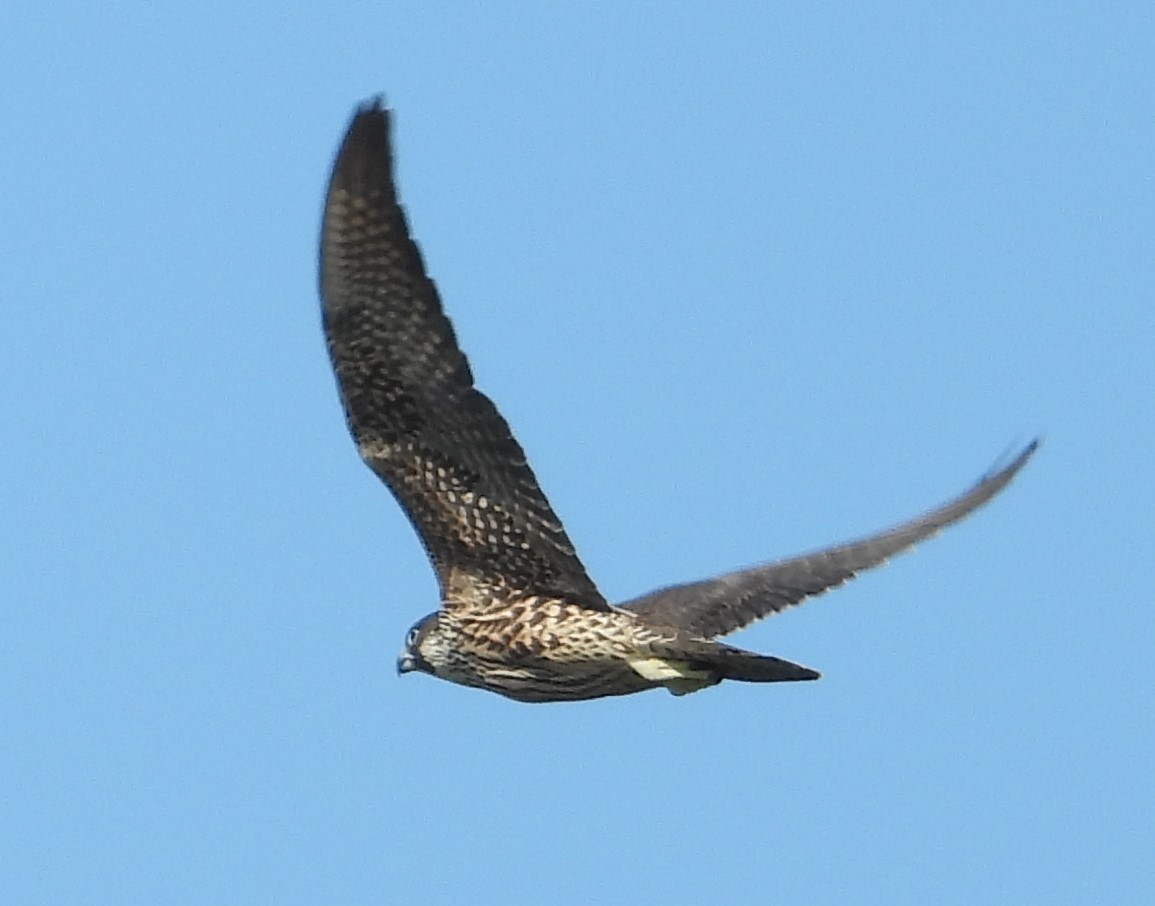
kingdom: Animalia
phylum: Chordata
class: Aves
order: Falconiformes
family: Falconidae
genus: Falco
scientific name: Falco peregrinus
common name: Peregrine falcon
